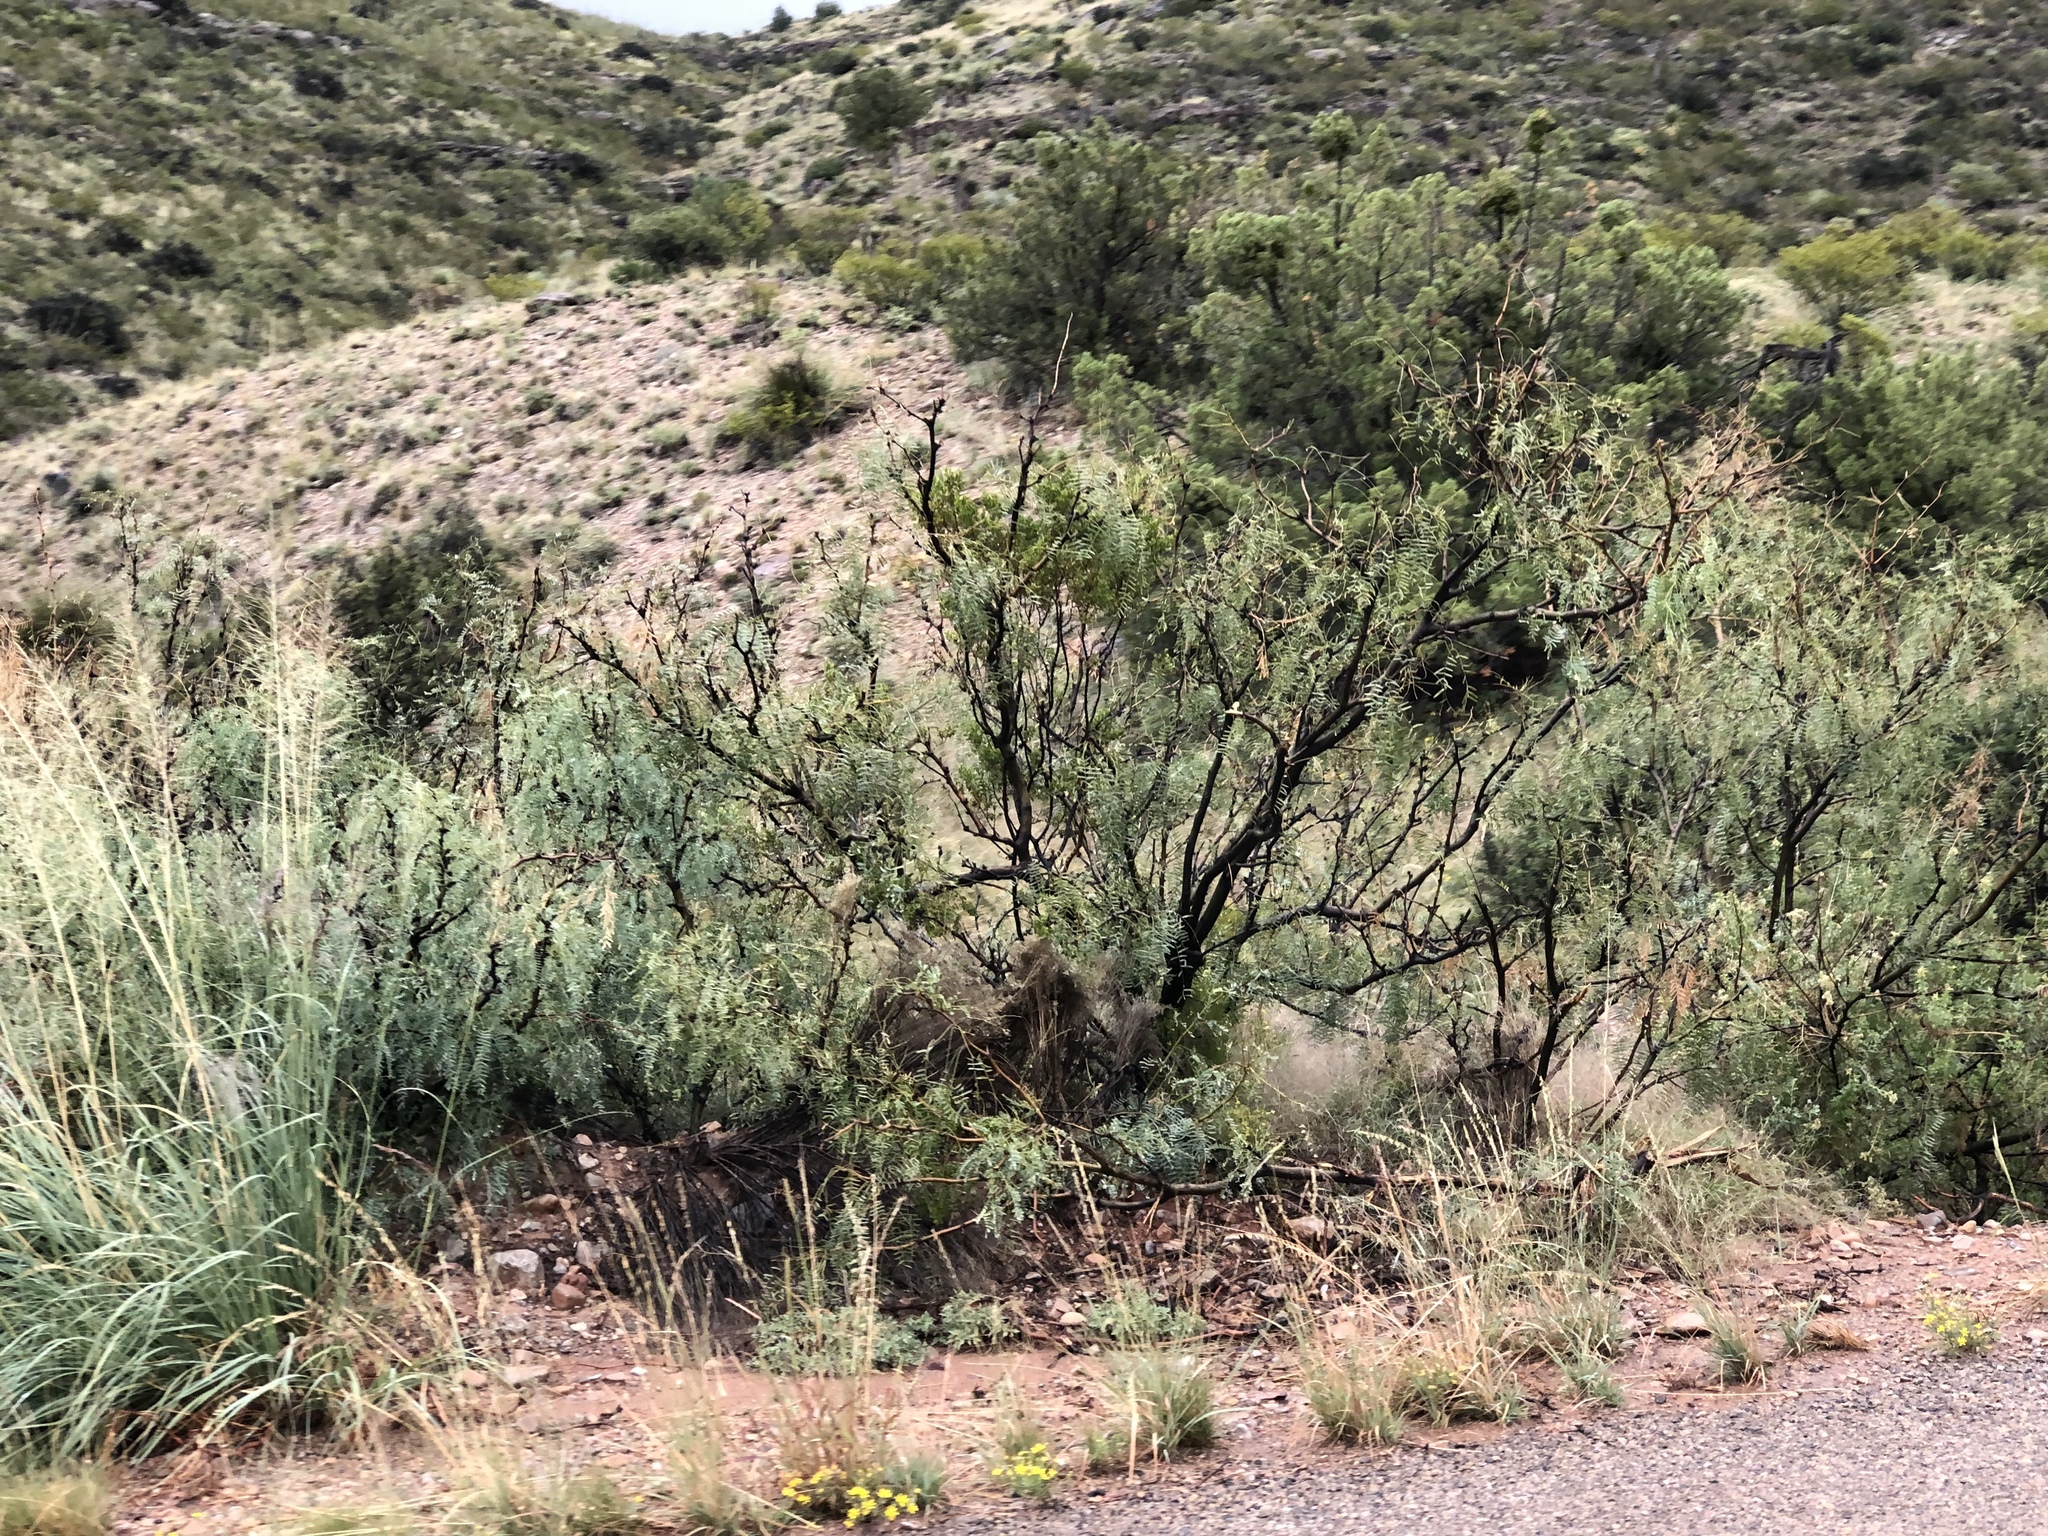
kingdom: Plantae
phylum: Tracheophyta
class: Magnoliopsida
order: Fabales
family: Fabaceae
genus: Prosopis
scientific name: Prosopis glandulosa
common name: Honey mesquite
